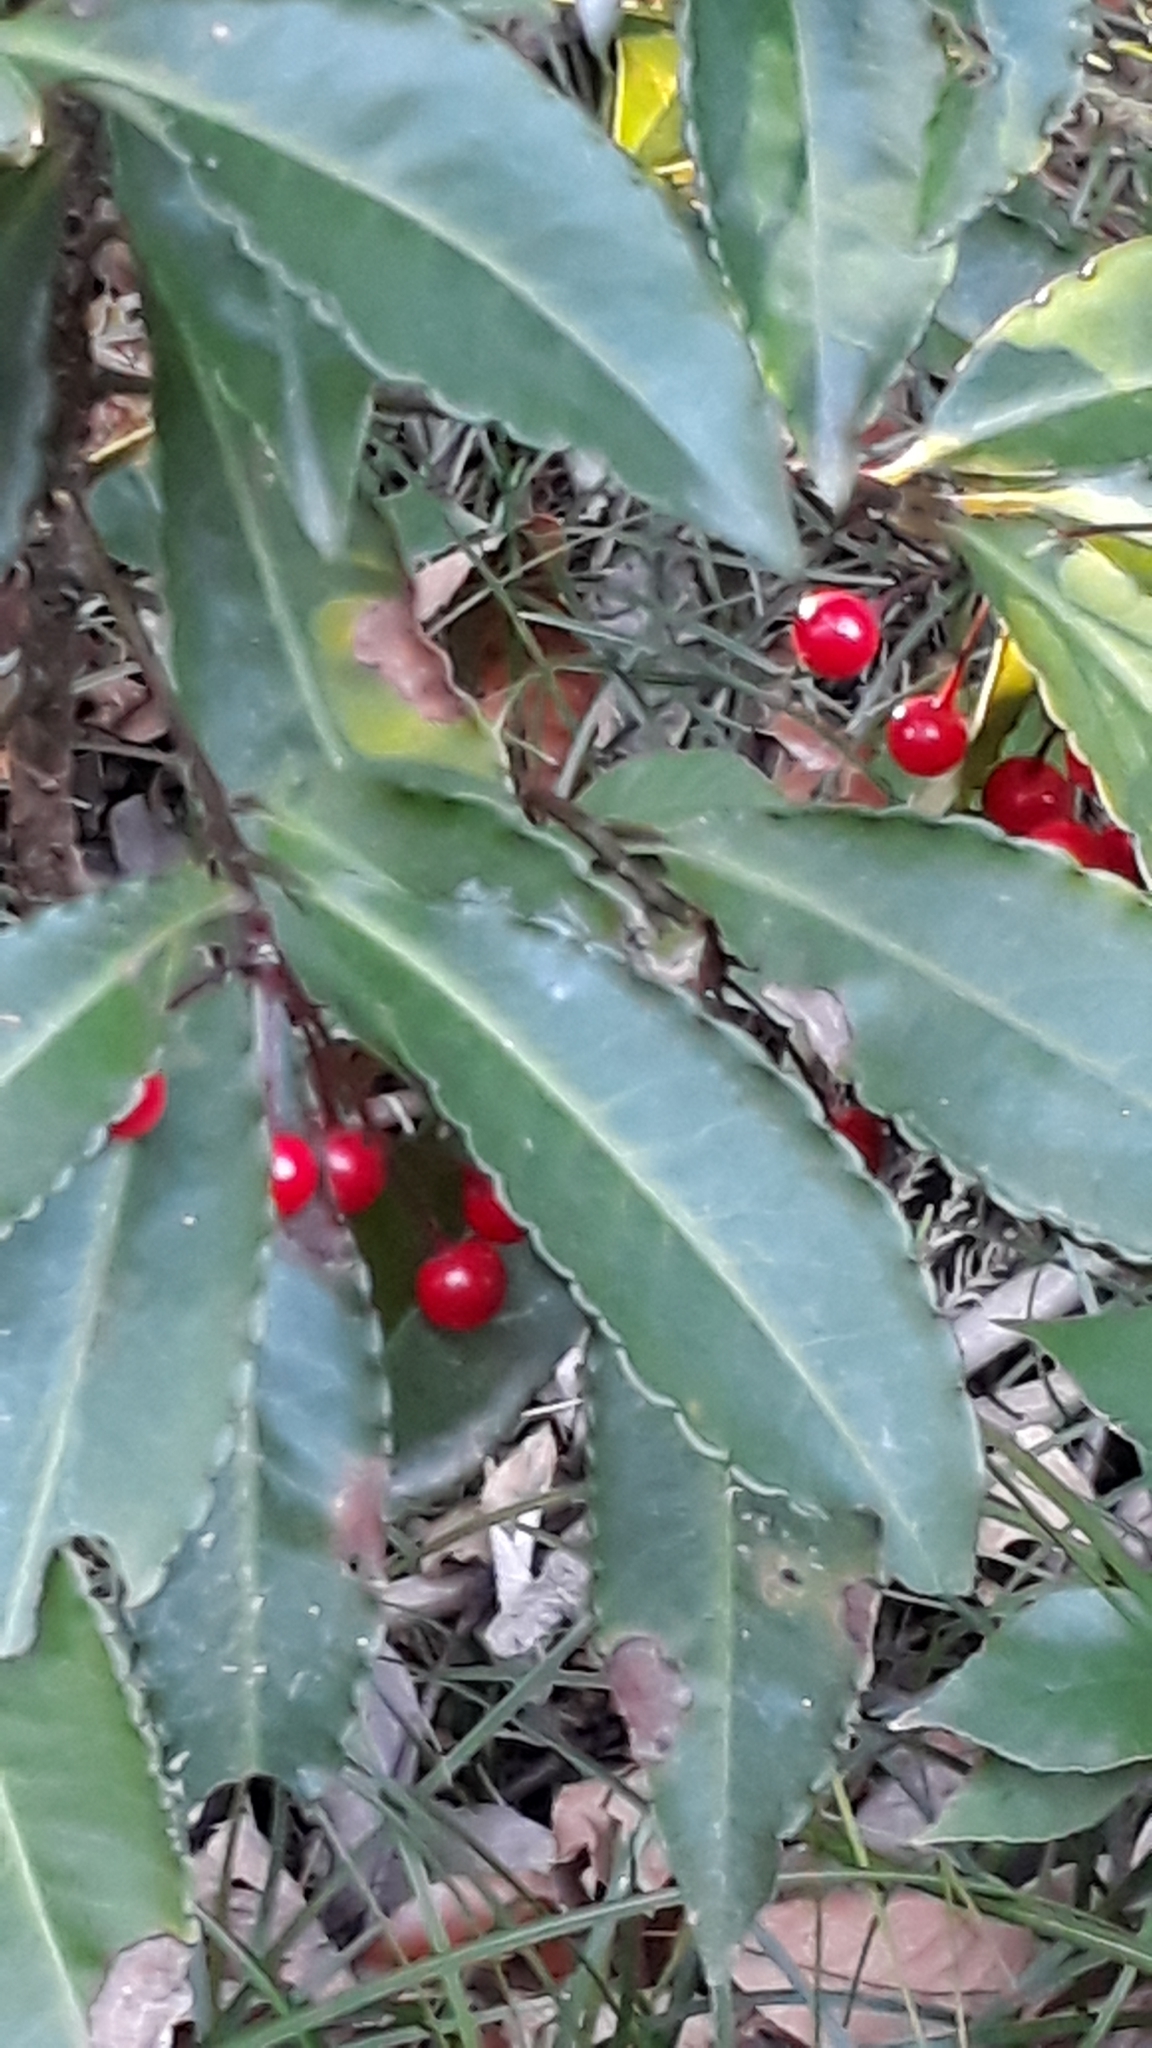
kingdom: Plantae
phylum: Tracheophyta
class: Magnoliopsida
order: Ericales
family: Primulaceae
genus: Ardisia
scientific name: Ardisia crenata
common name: Hen's eyes
